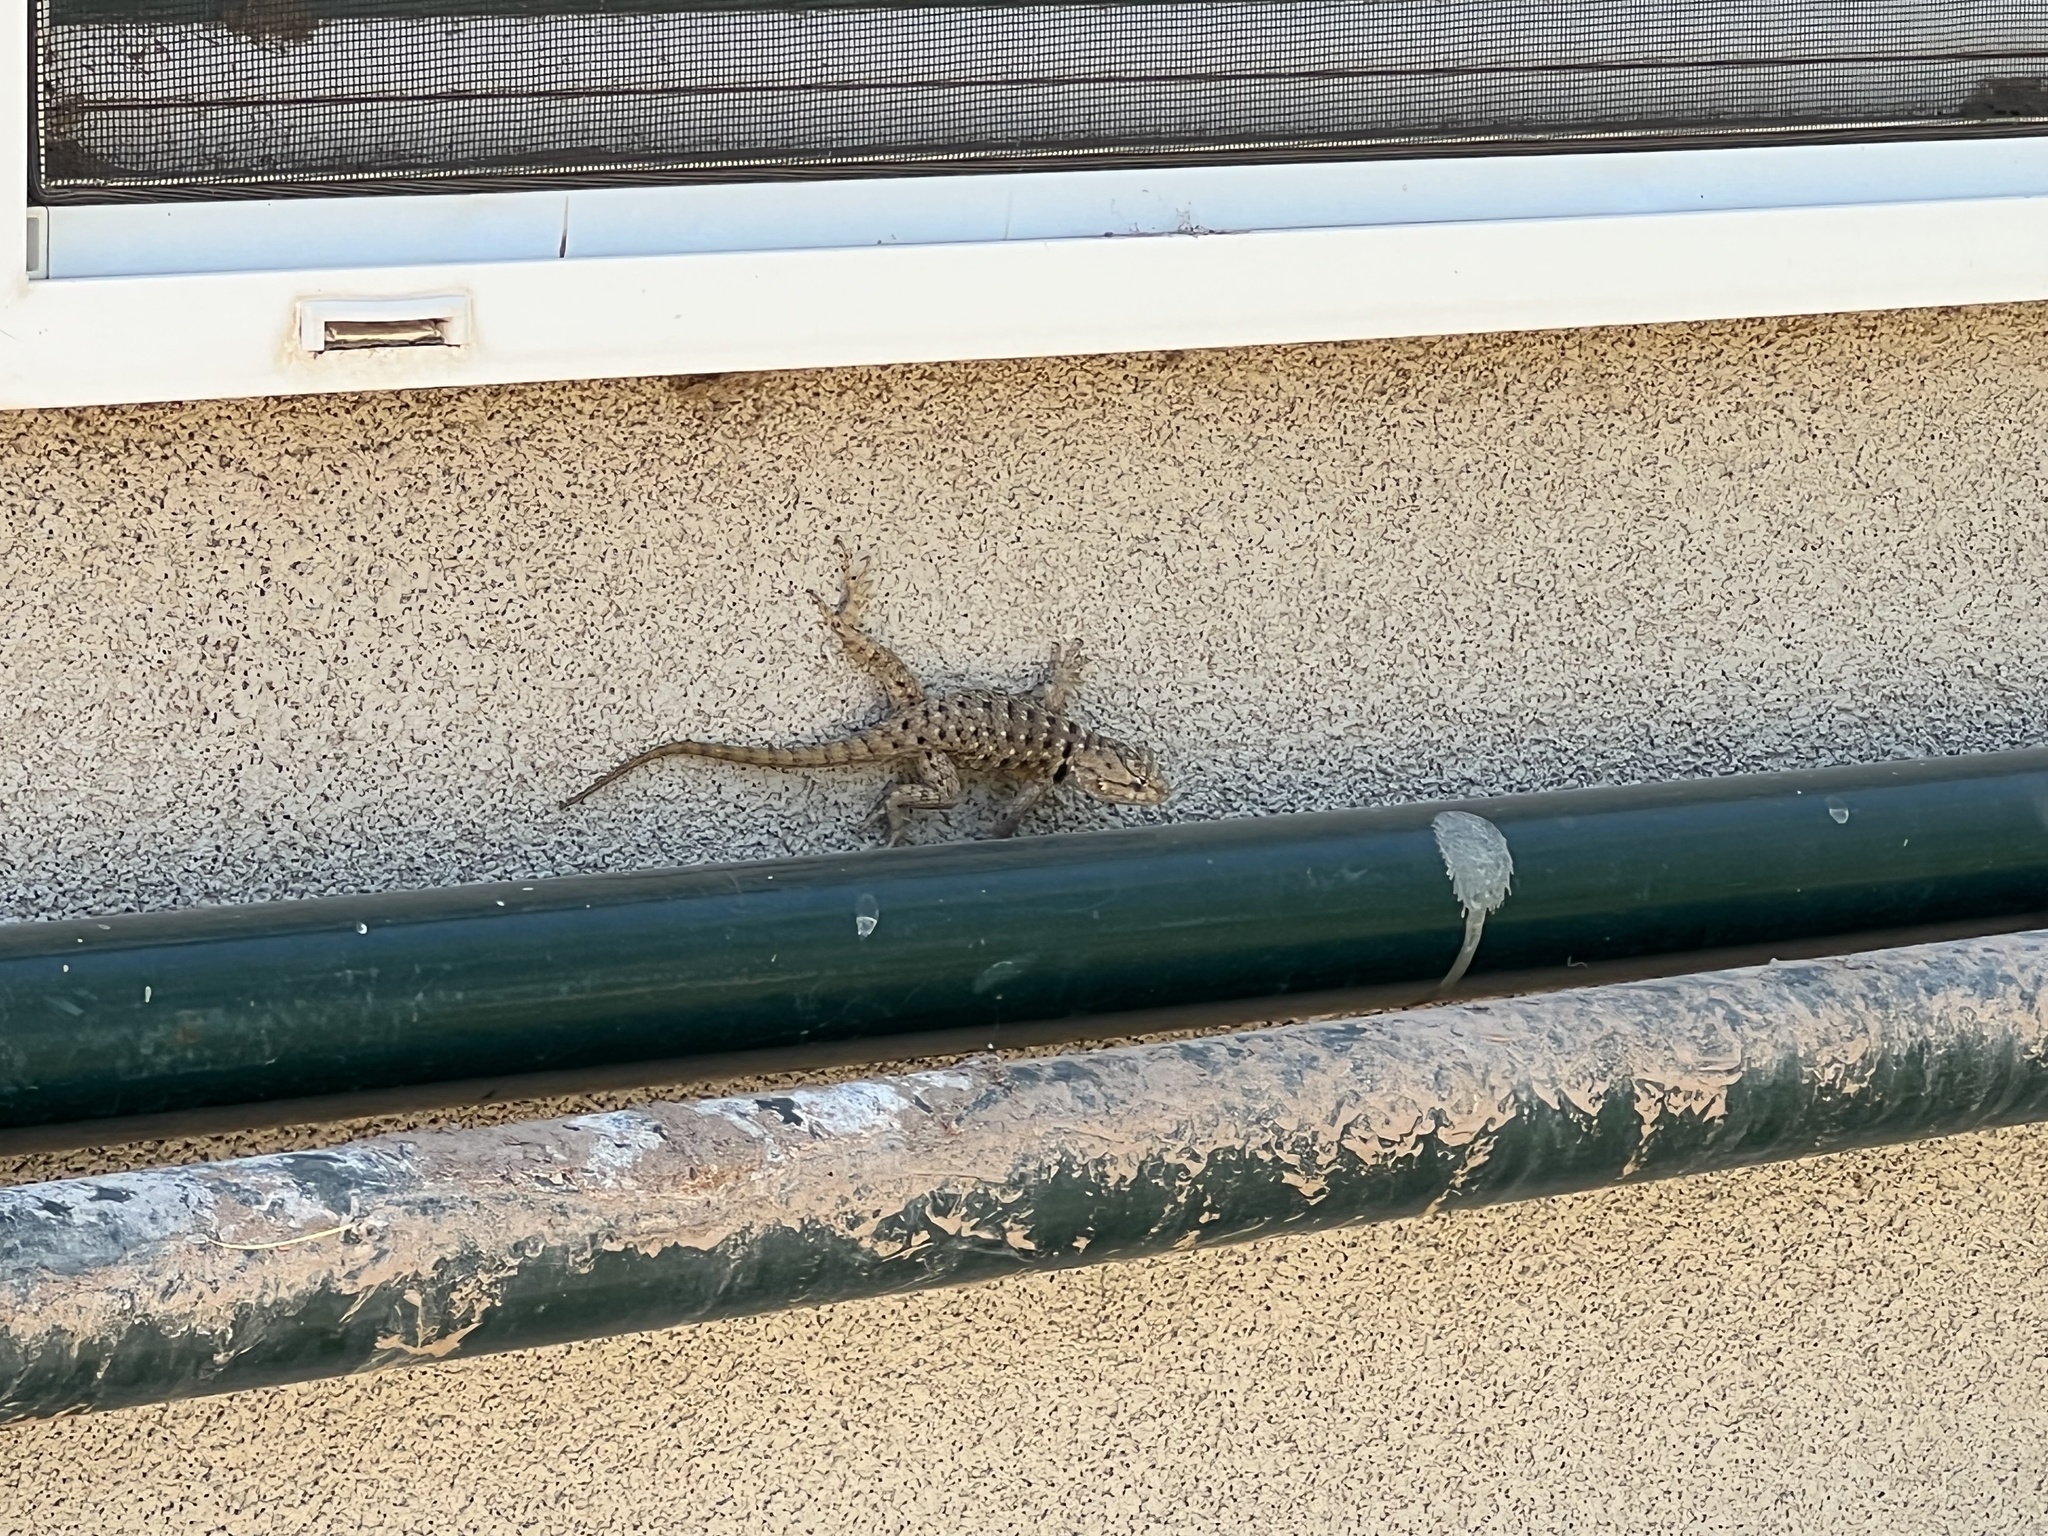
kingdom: Animalia
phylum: Chordata
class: Squamata
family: Phrynosomatidae
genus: Sceloporus
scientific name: Sceloporus bimaculosus
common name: Twin-spotted spiny lizard
